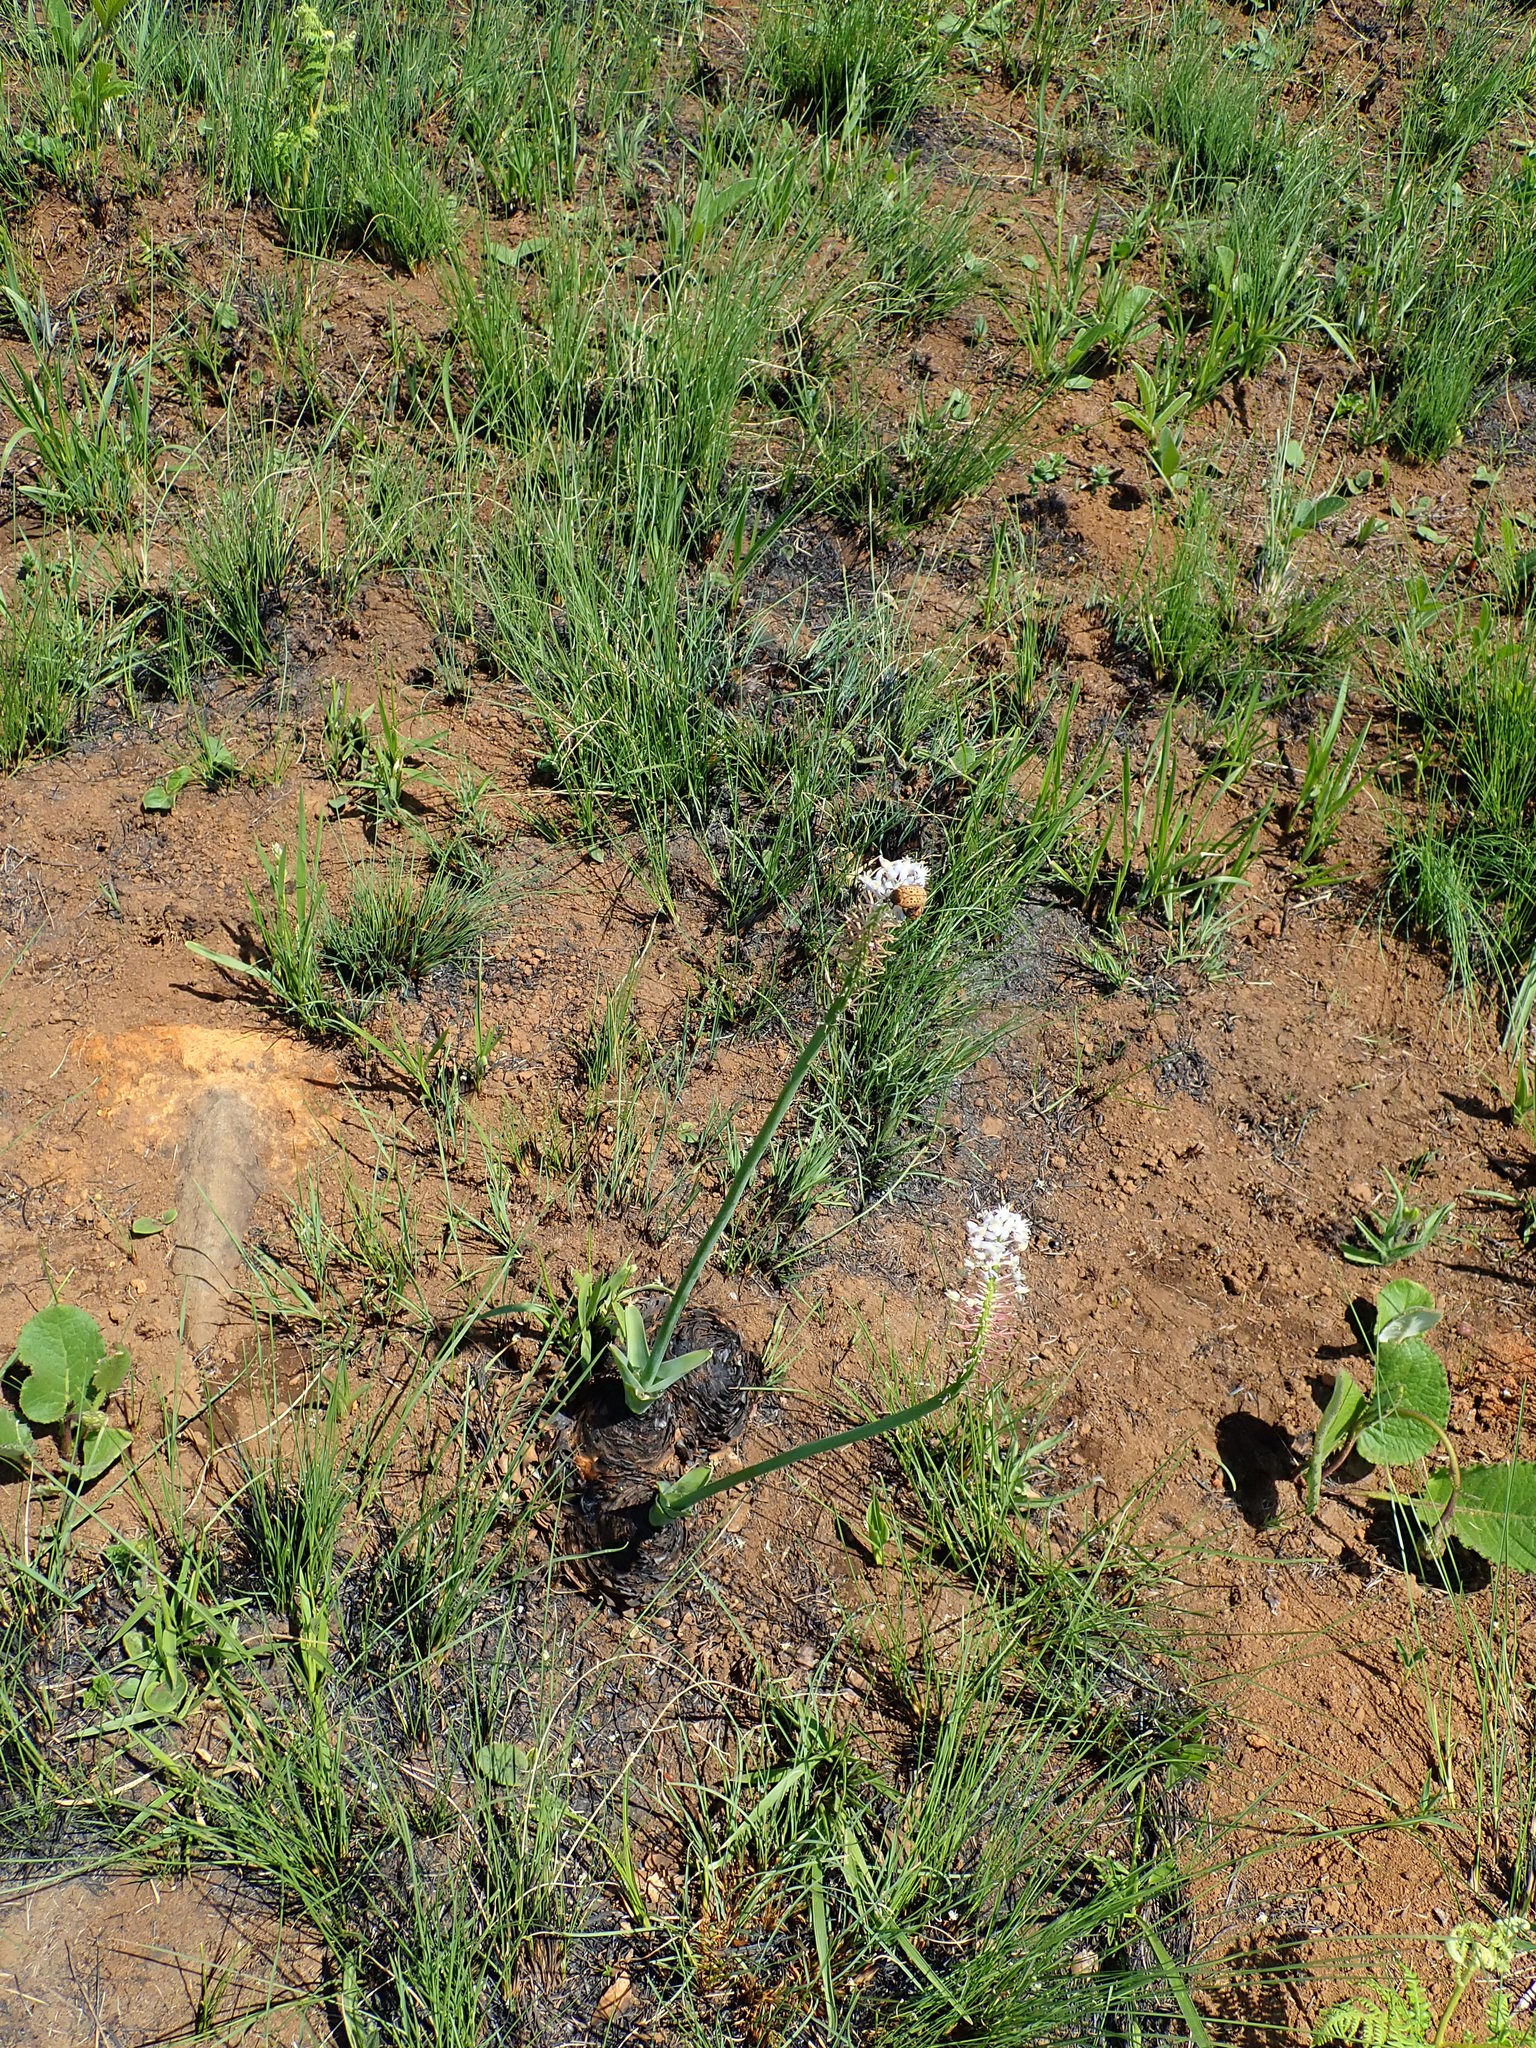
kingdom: Plantae
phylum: Tracheophyta
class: Liliopsida
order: Asparagales
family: Asparagaceae
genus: Merwilla
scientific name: Merwilla plumbea
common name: Blue-squill
